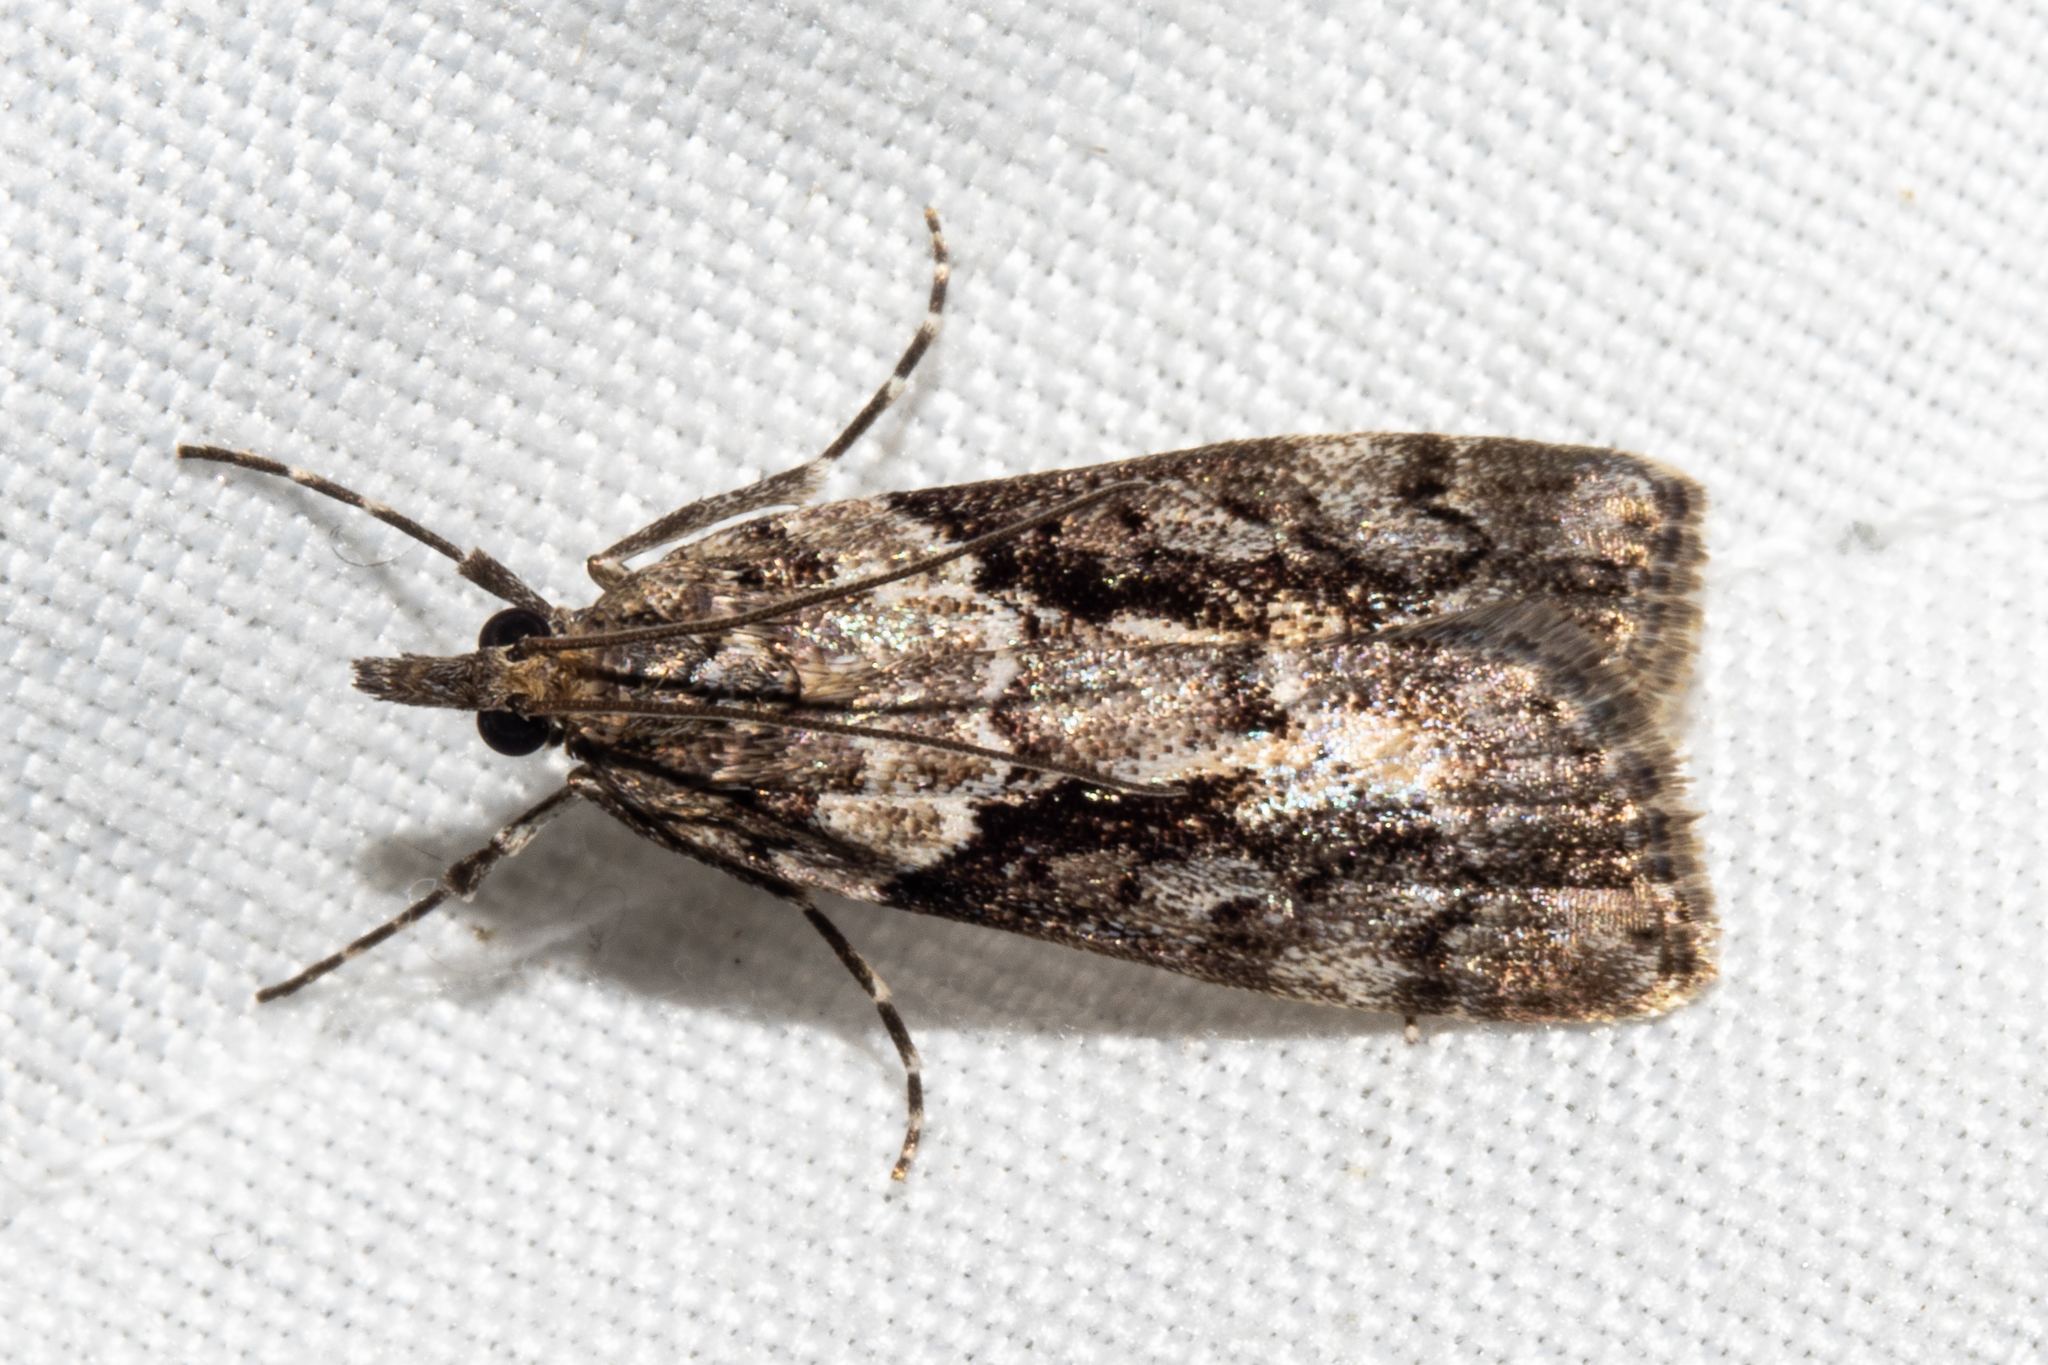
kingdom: Animalia
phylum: Arthropoda
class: Insecta
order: Lepidoptera
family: Crambidae
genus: Eudonia
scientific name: Eudonia submarginalis
